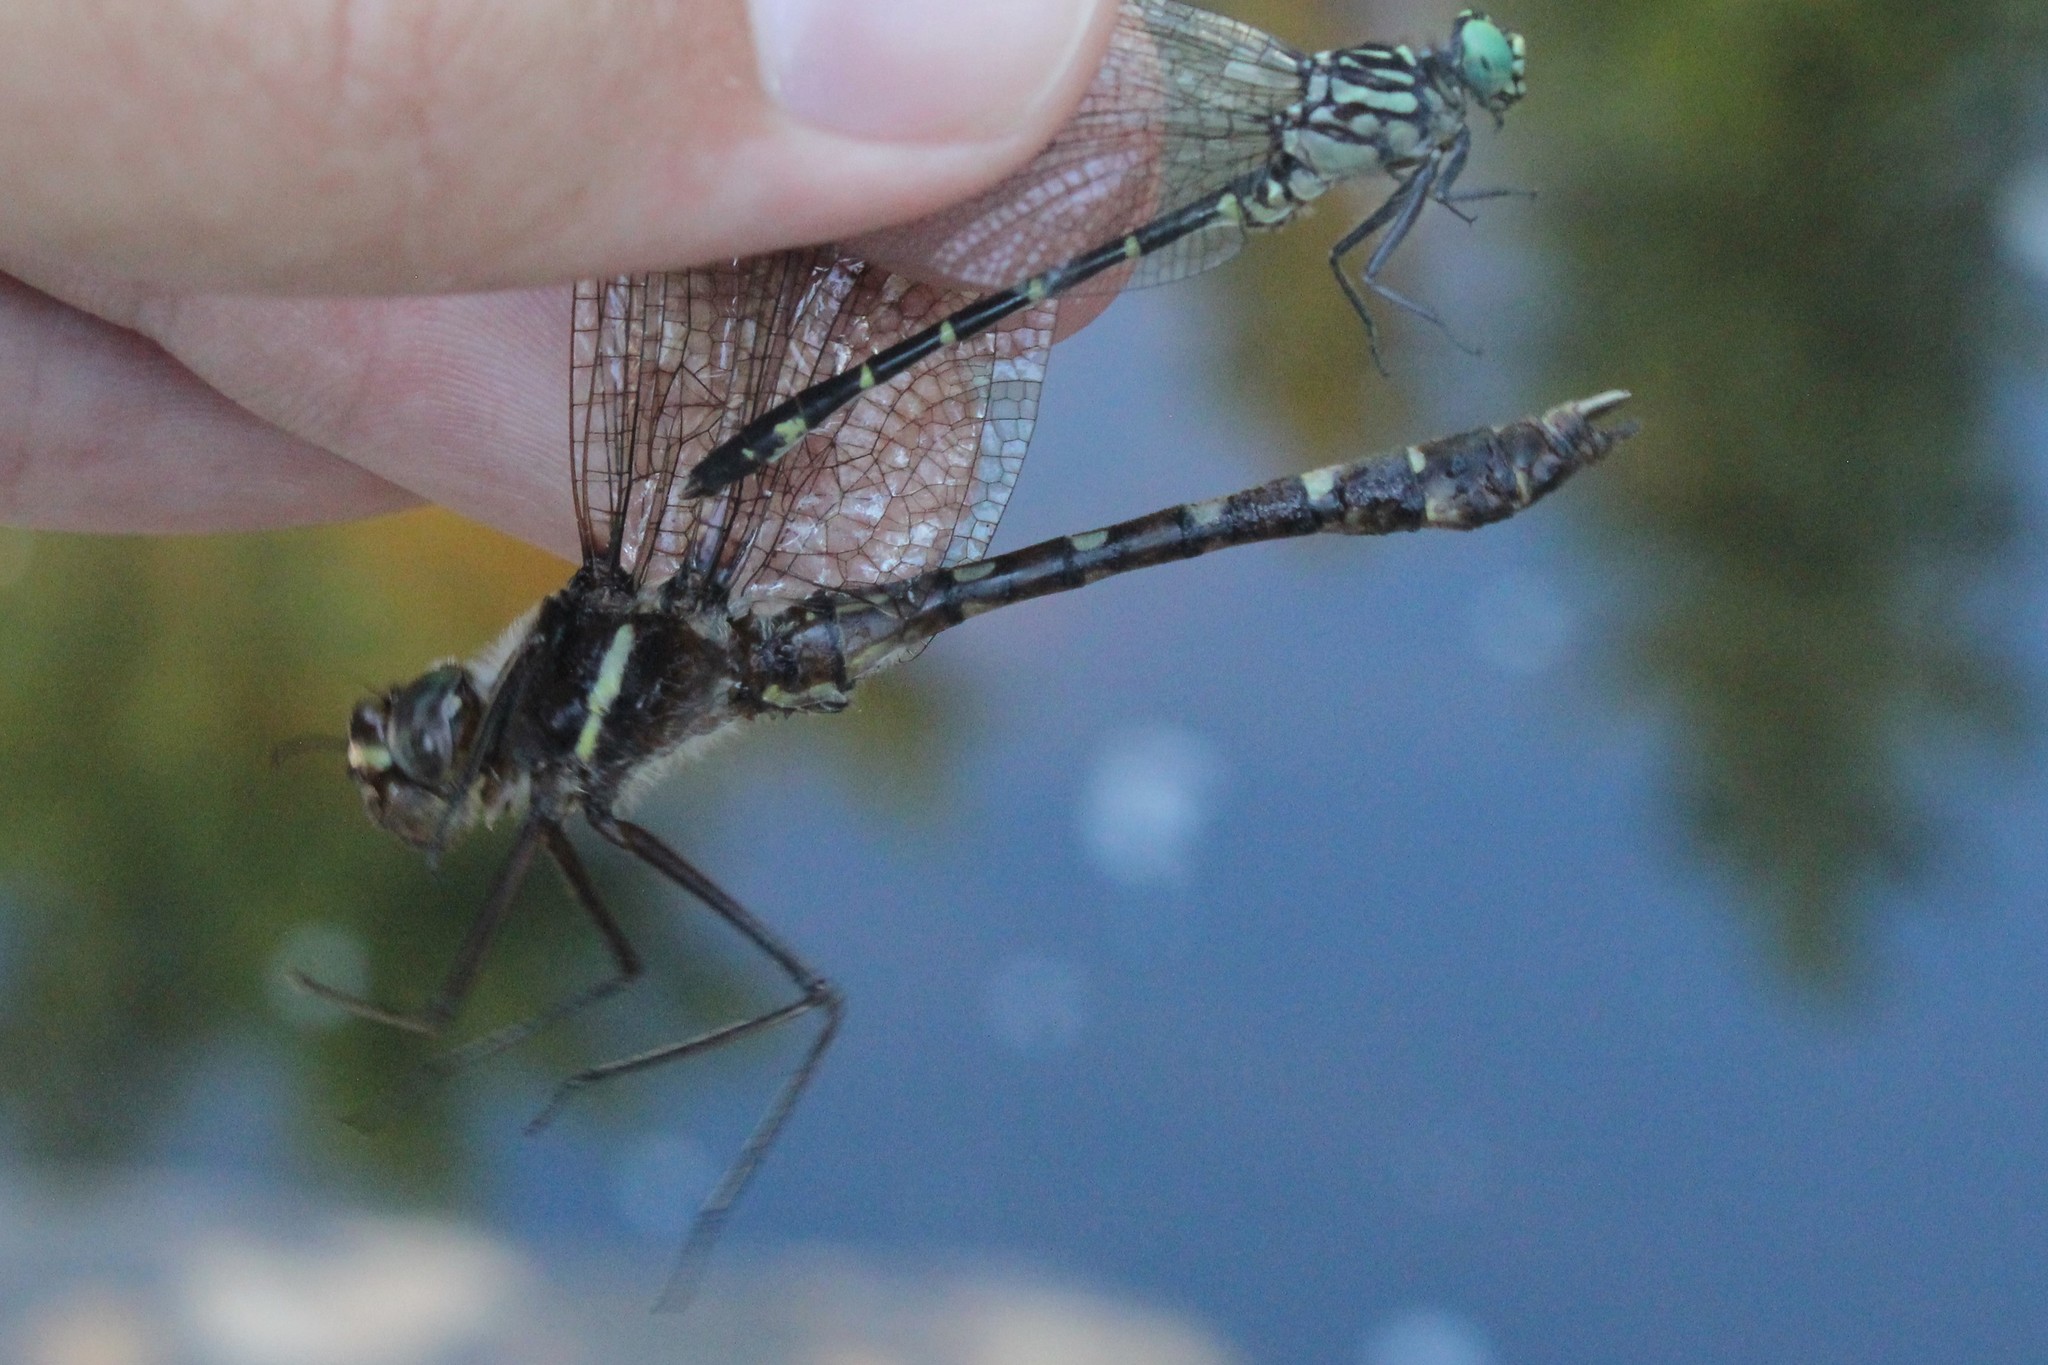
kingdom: Animalia
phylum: Arthropoda
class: Insecta
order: Odonata
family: Macromiidae
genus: Didymops
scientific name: Didymops transversa
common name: Stream cruiser
